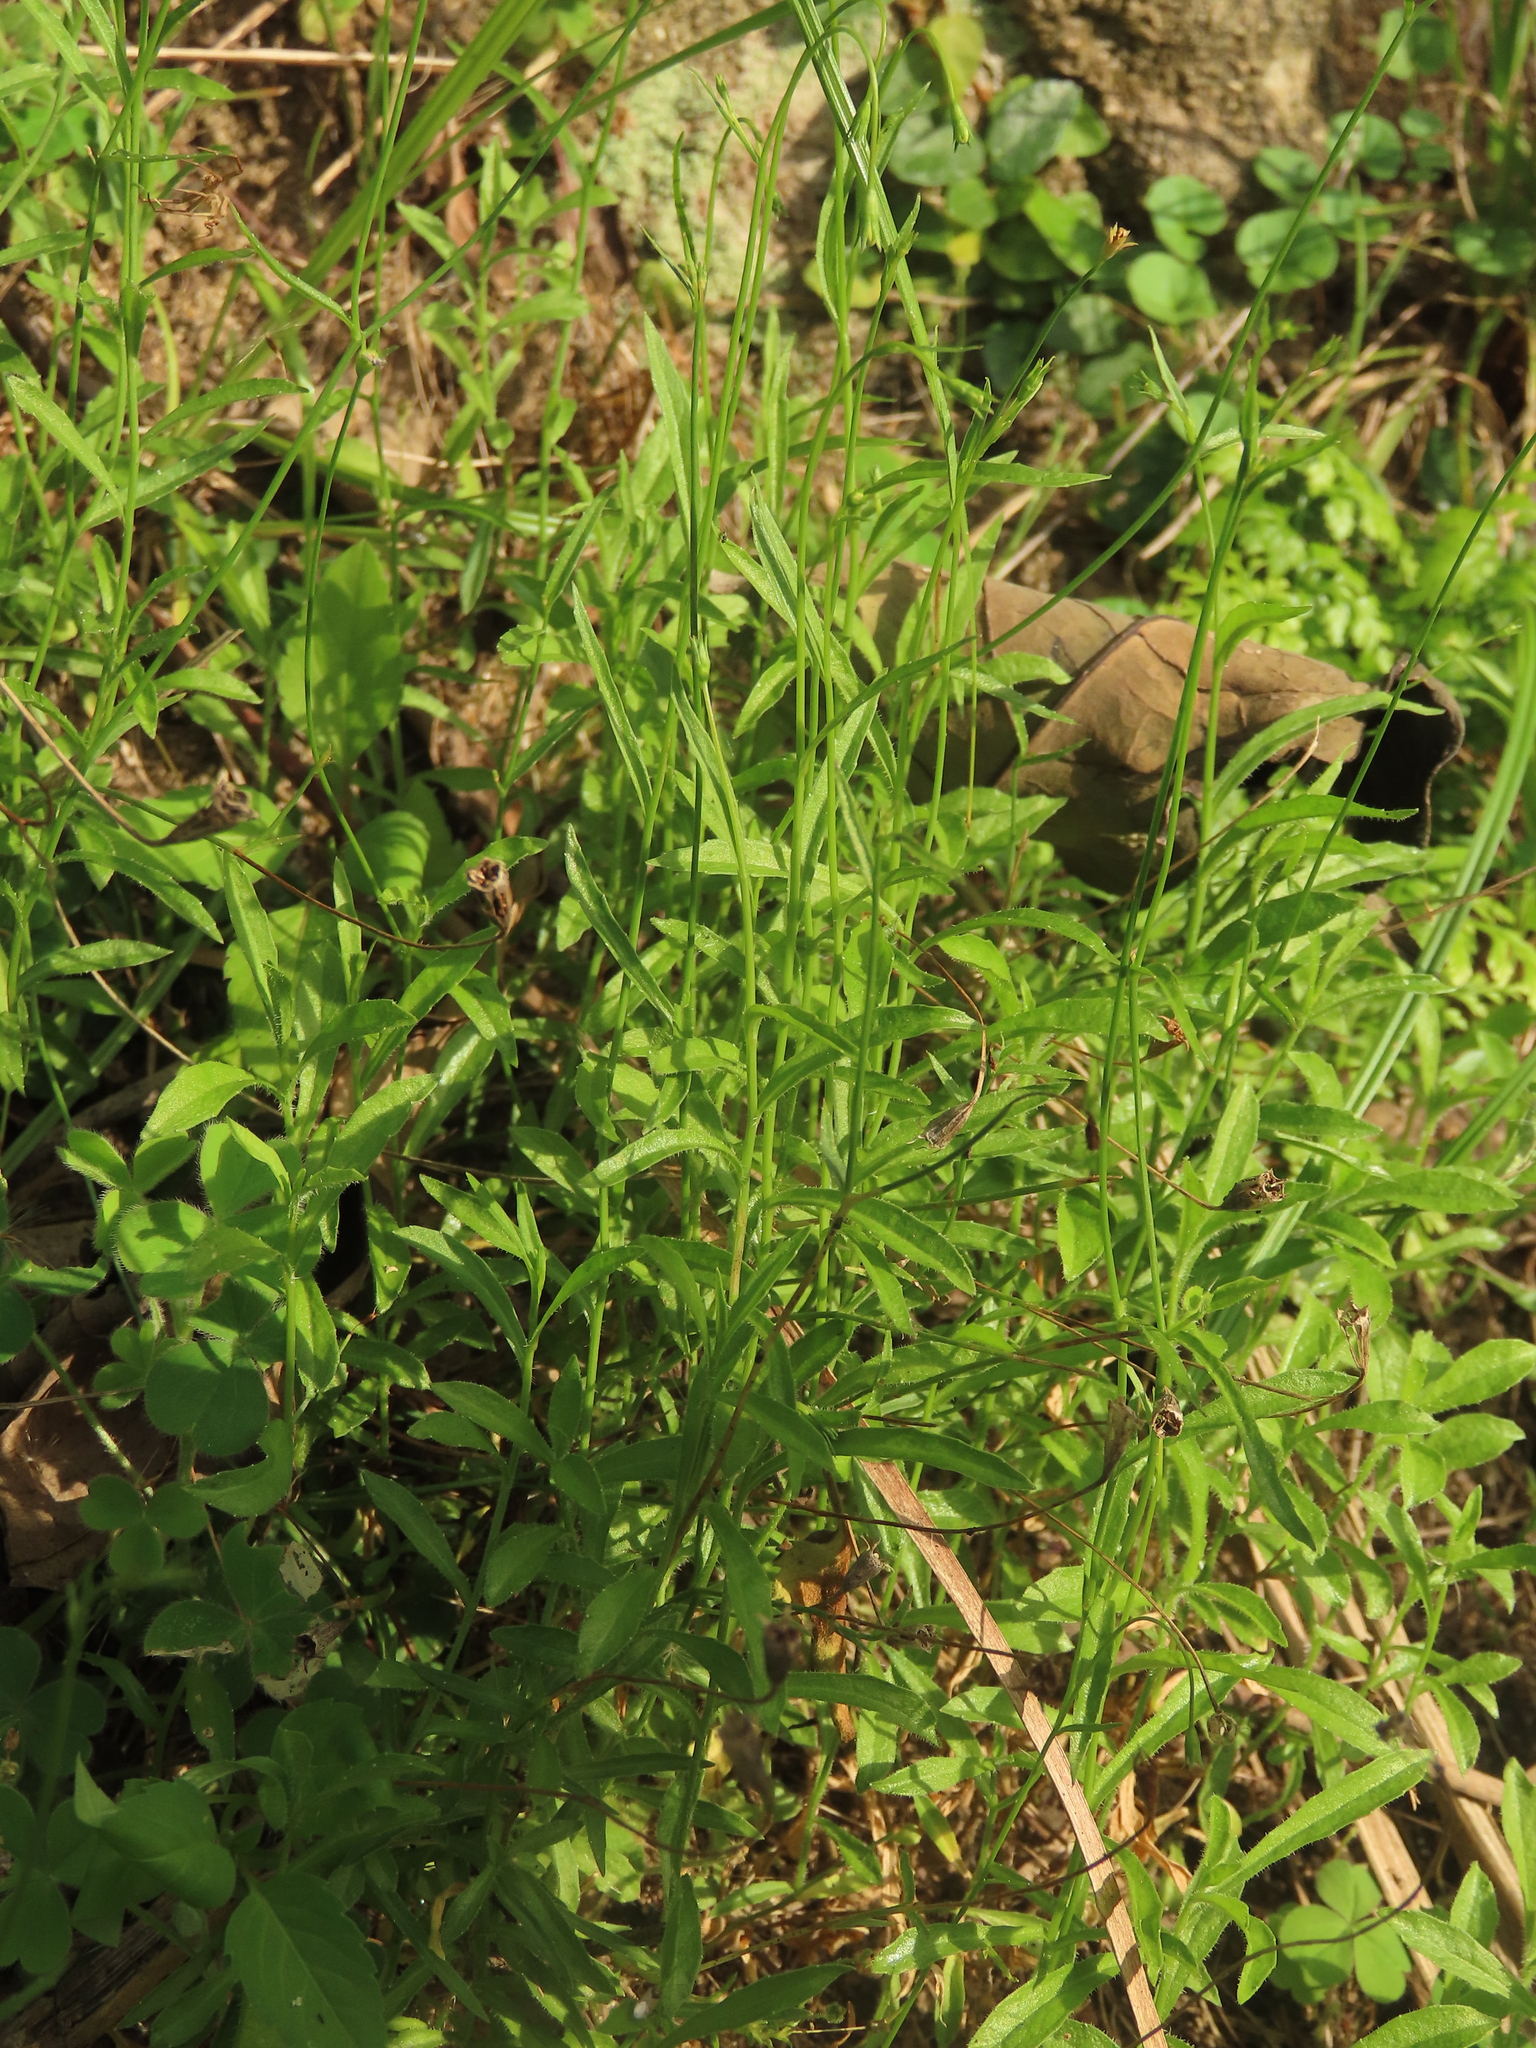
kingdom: Plantae
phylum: Tracheophyta
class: Magnoliopsida
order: Asterales
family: Campanulaceae
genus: Wahlenbergia
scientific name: Wahlenbergia marginata
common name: Southern rockbell
